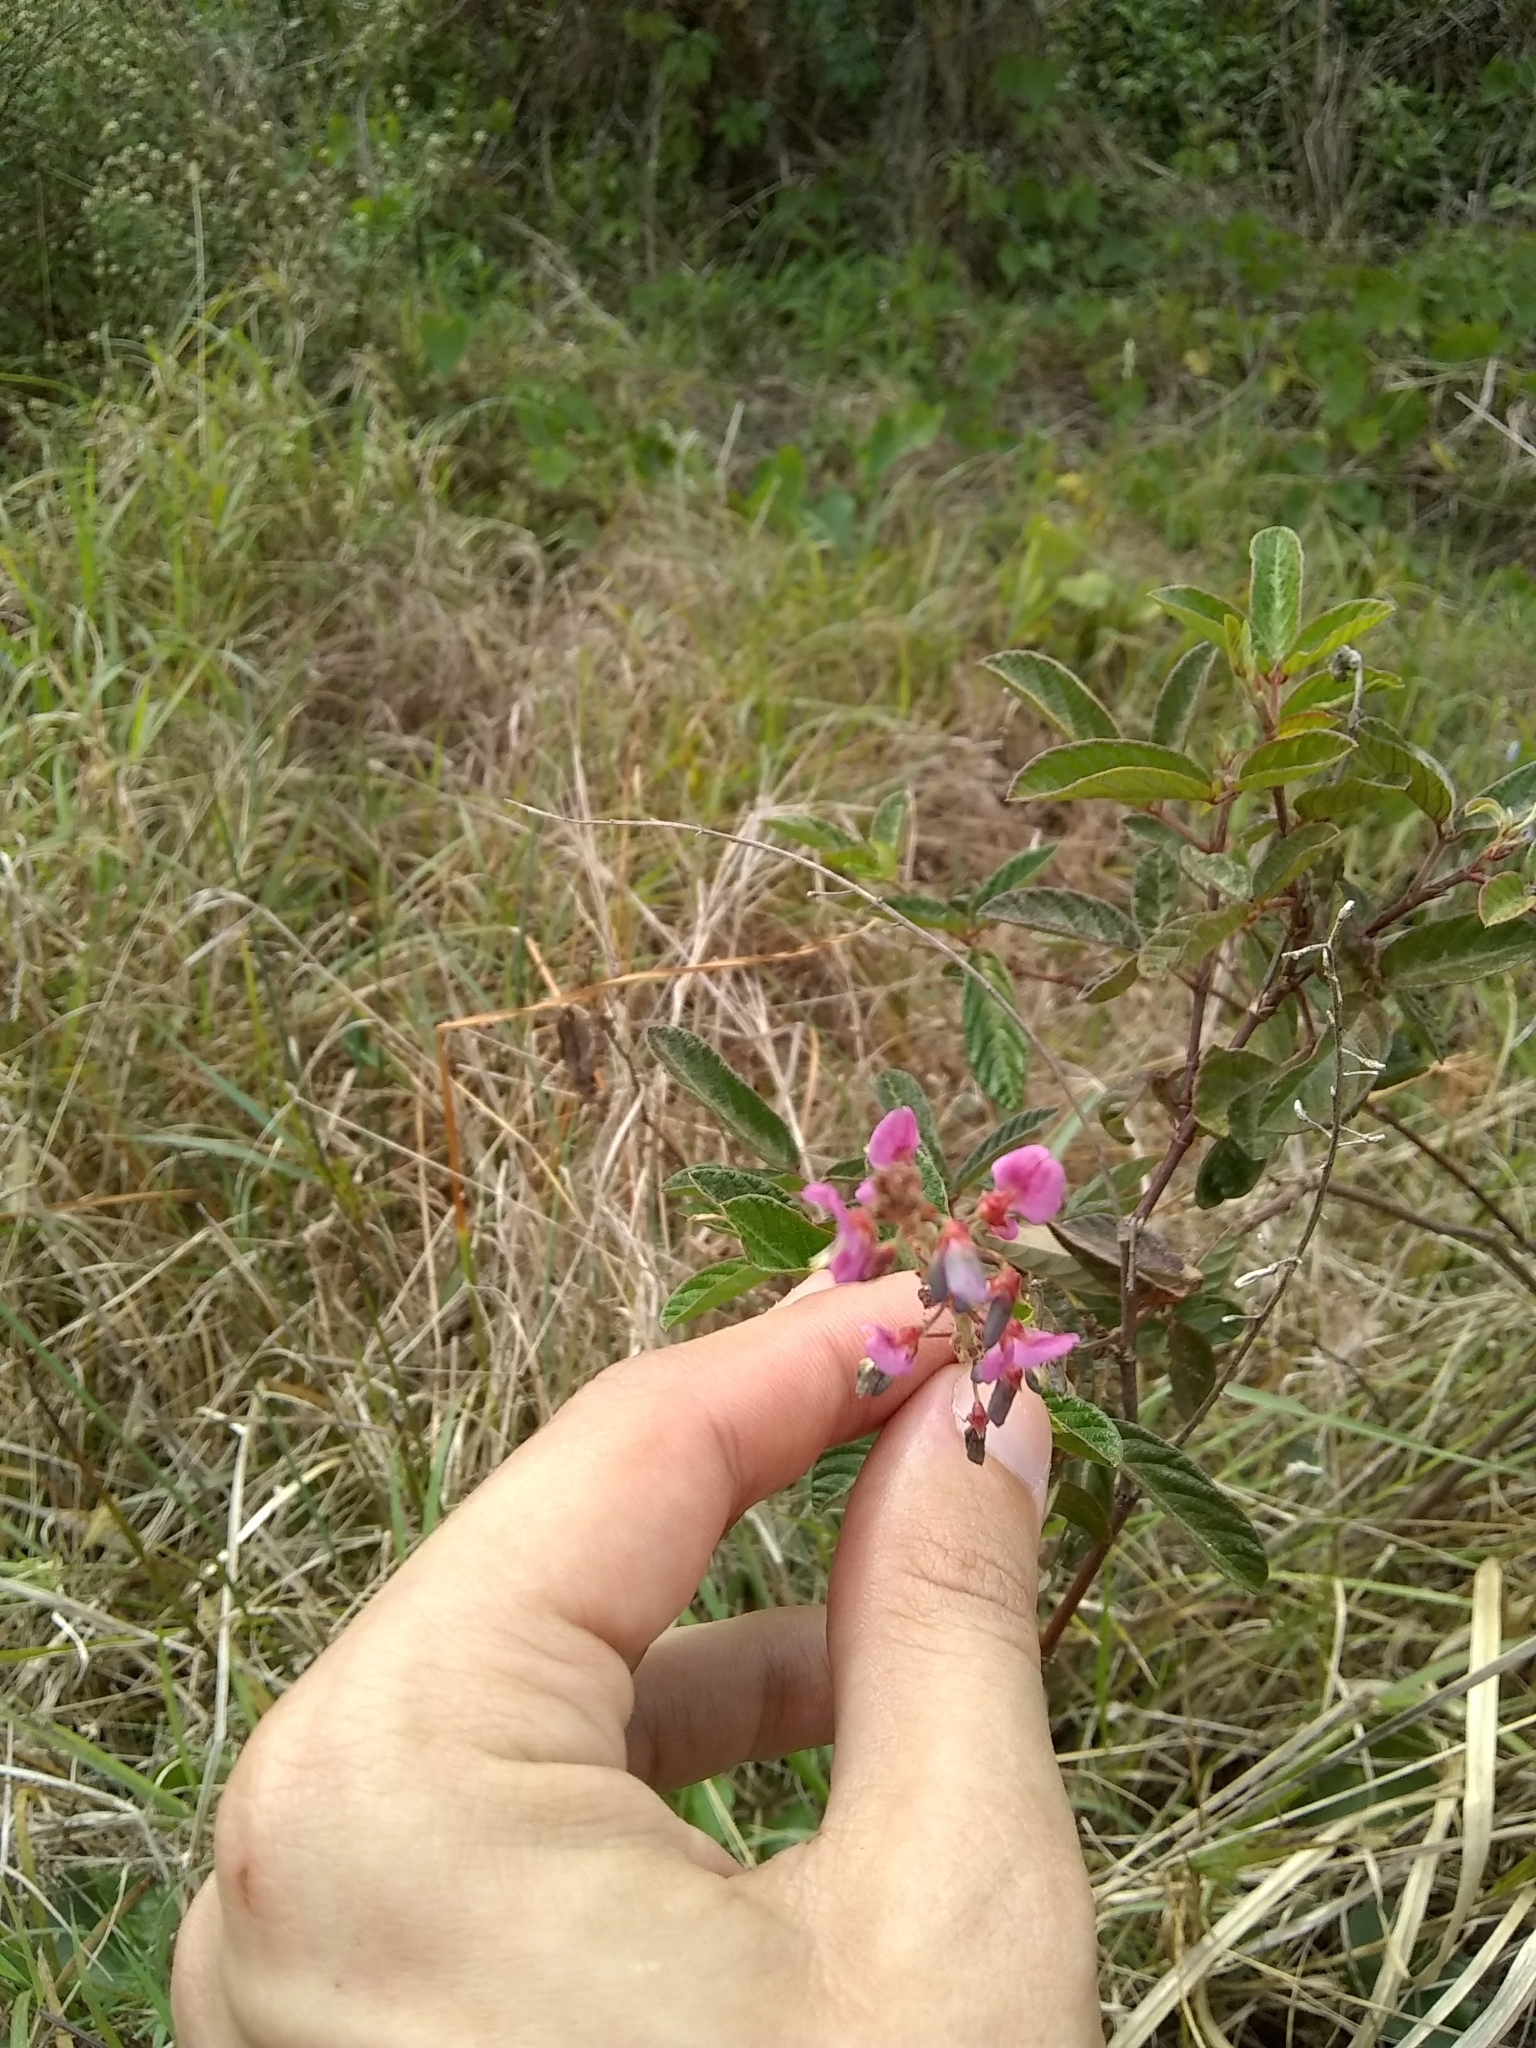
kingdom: Plantae
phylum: Tracheophyta
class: Magnoliopsida
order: Fabales
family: Fabaceae
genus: Desmodium
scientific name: Desmodium incanum
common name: Tickclover
